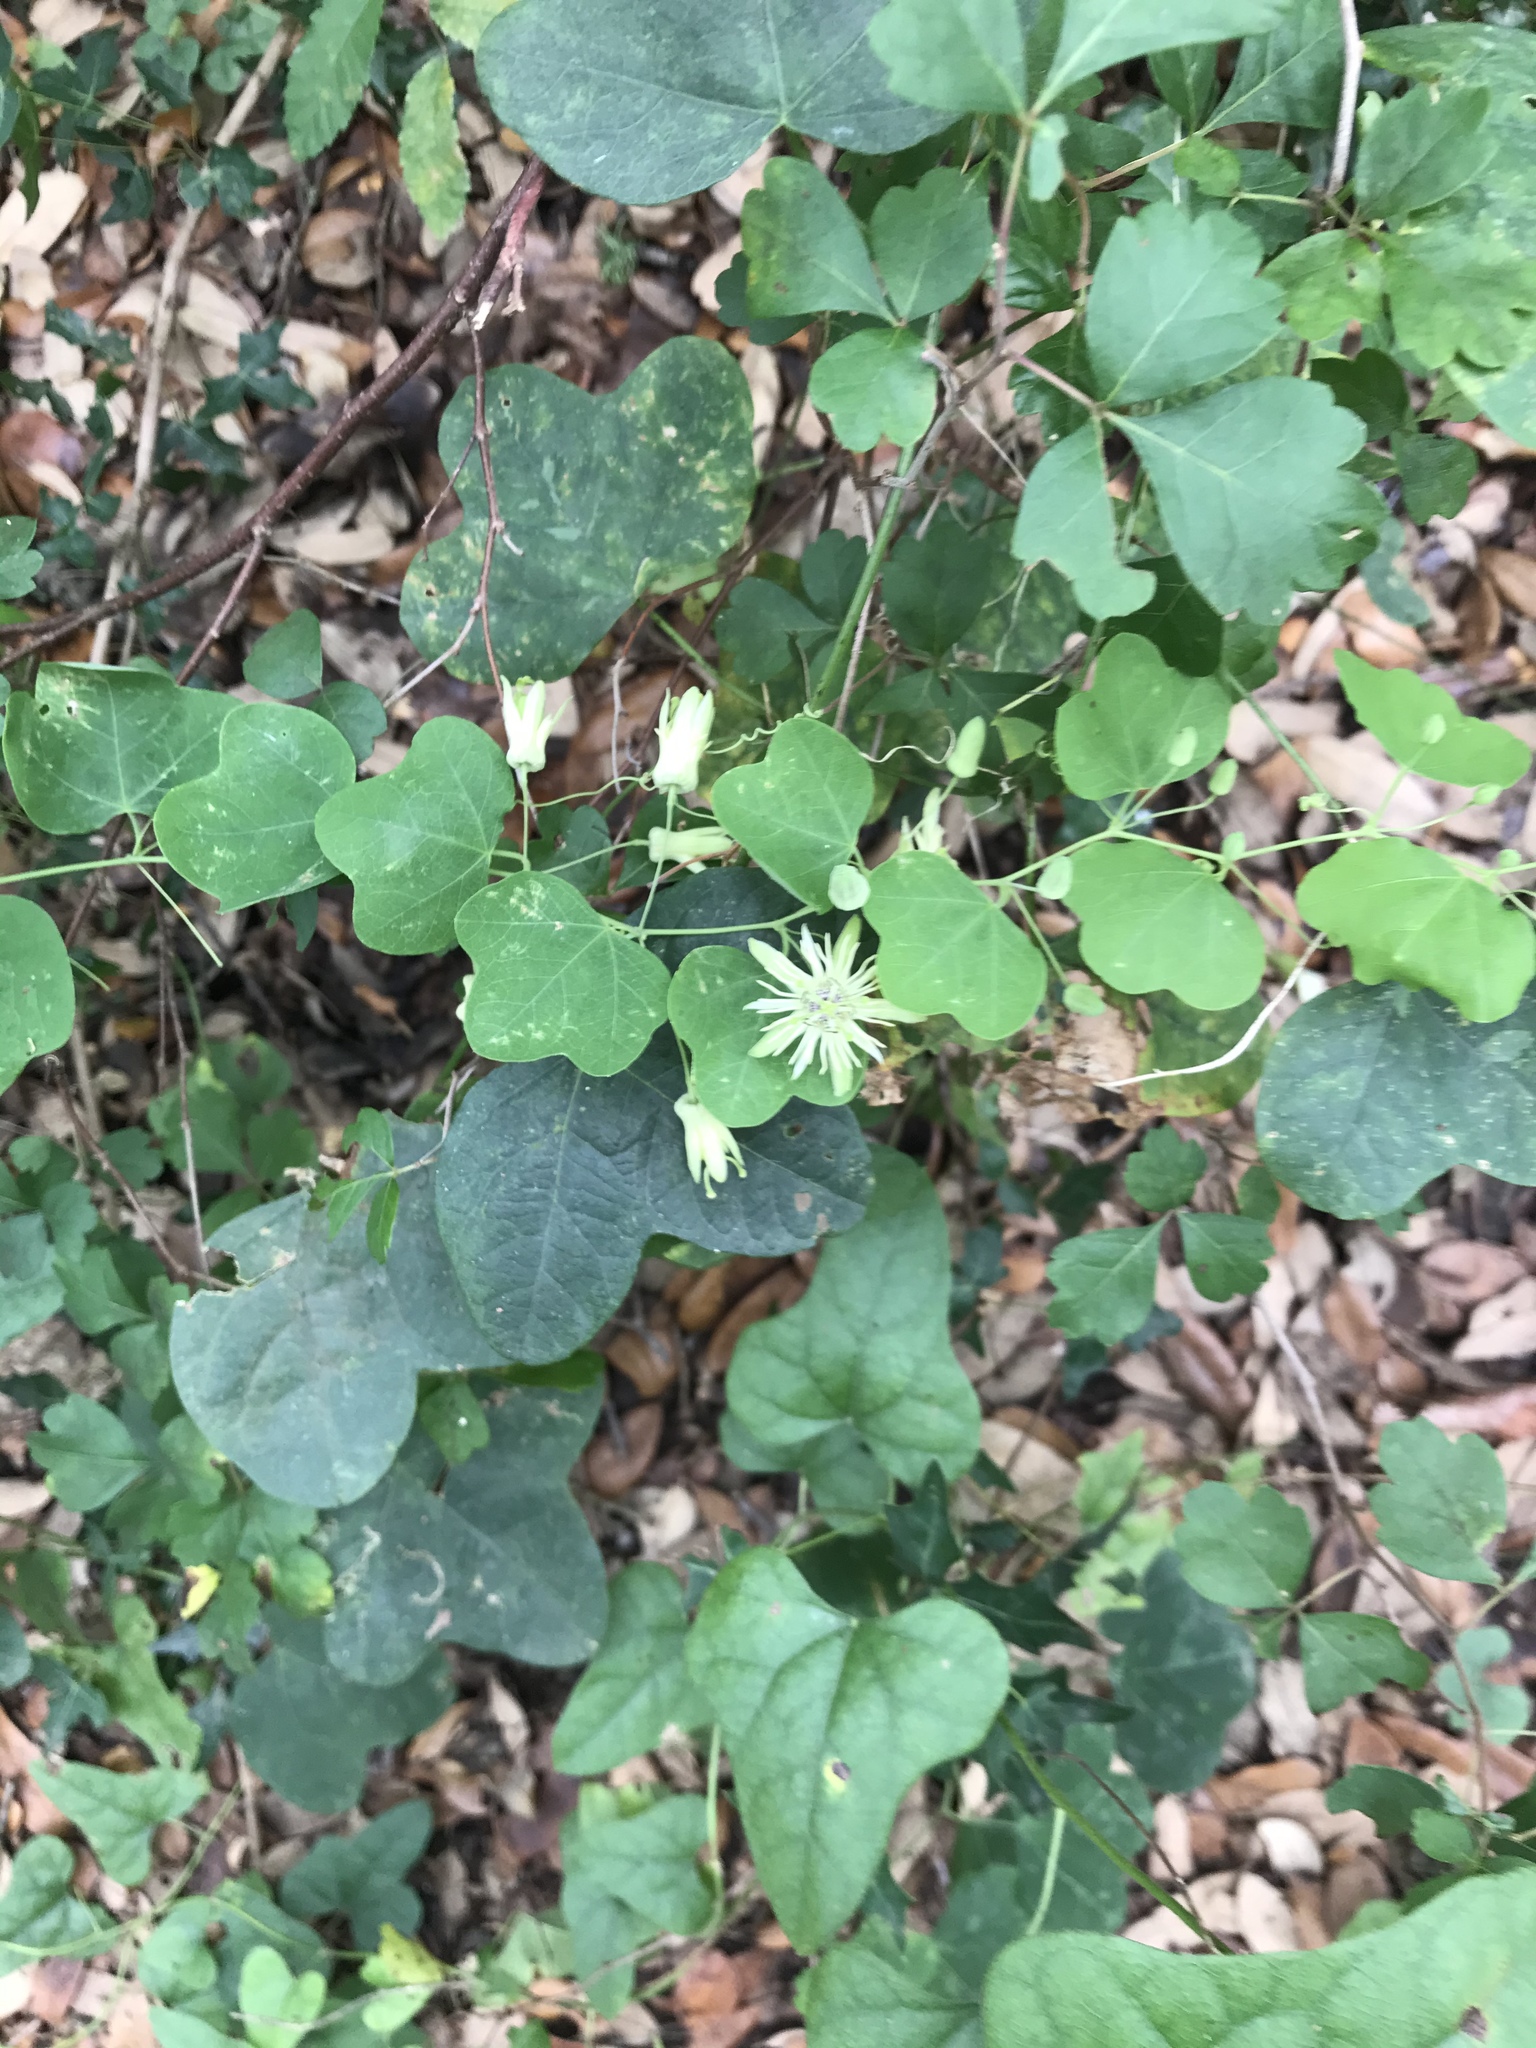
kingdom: Plantae
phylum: Tracheophyta
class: Magnoliopsida
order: Malpighiales
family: Passifloraceae
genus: Passiflora
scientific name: Passiflora lutea
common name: Yellow passionflower
